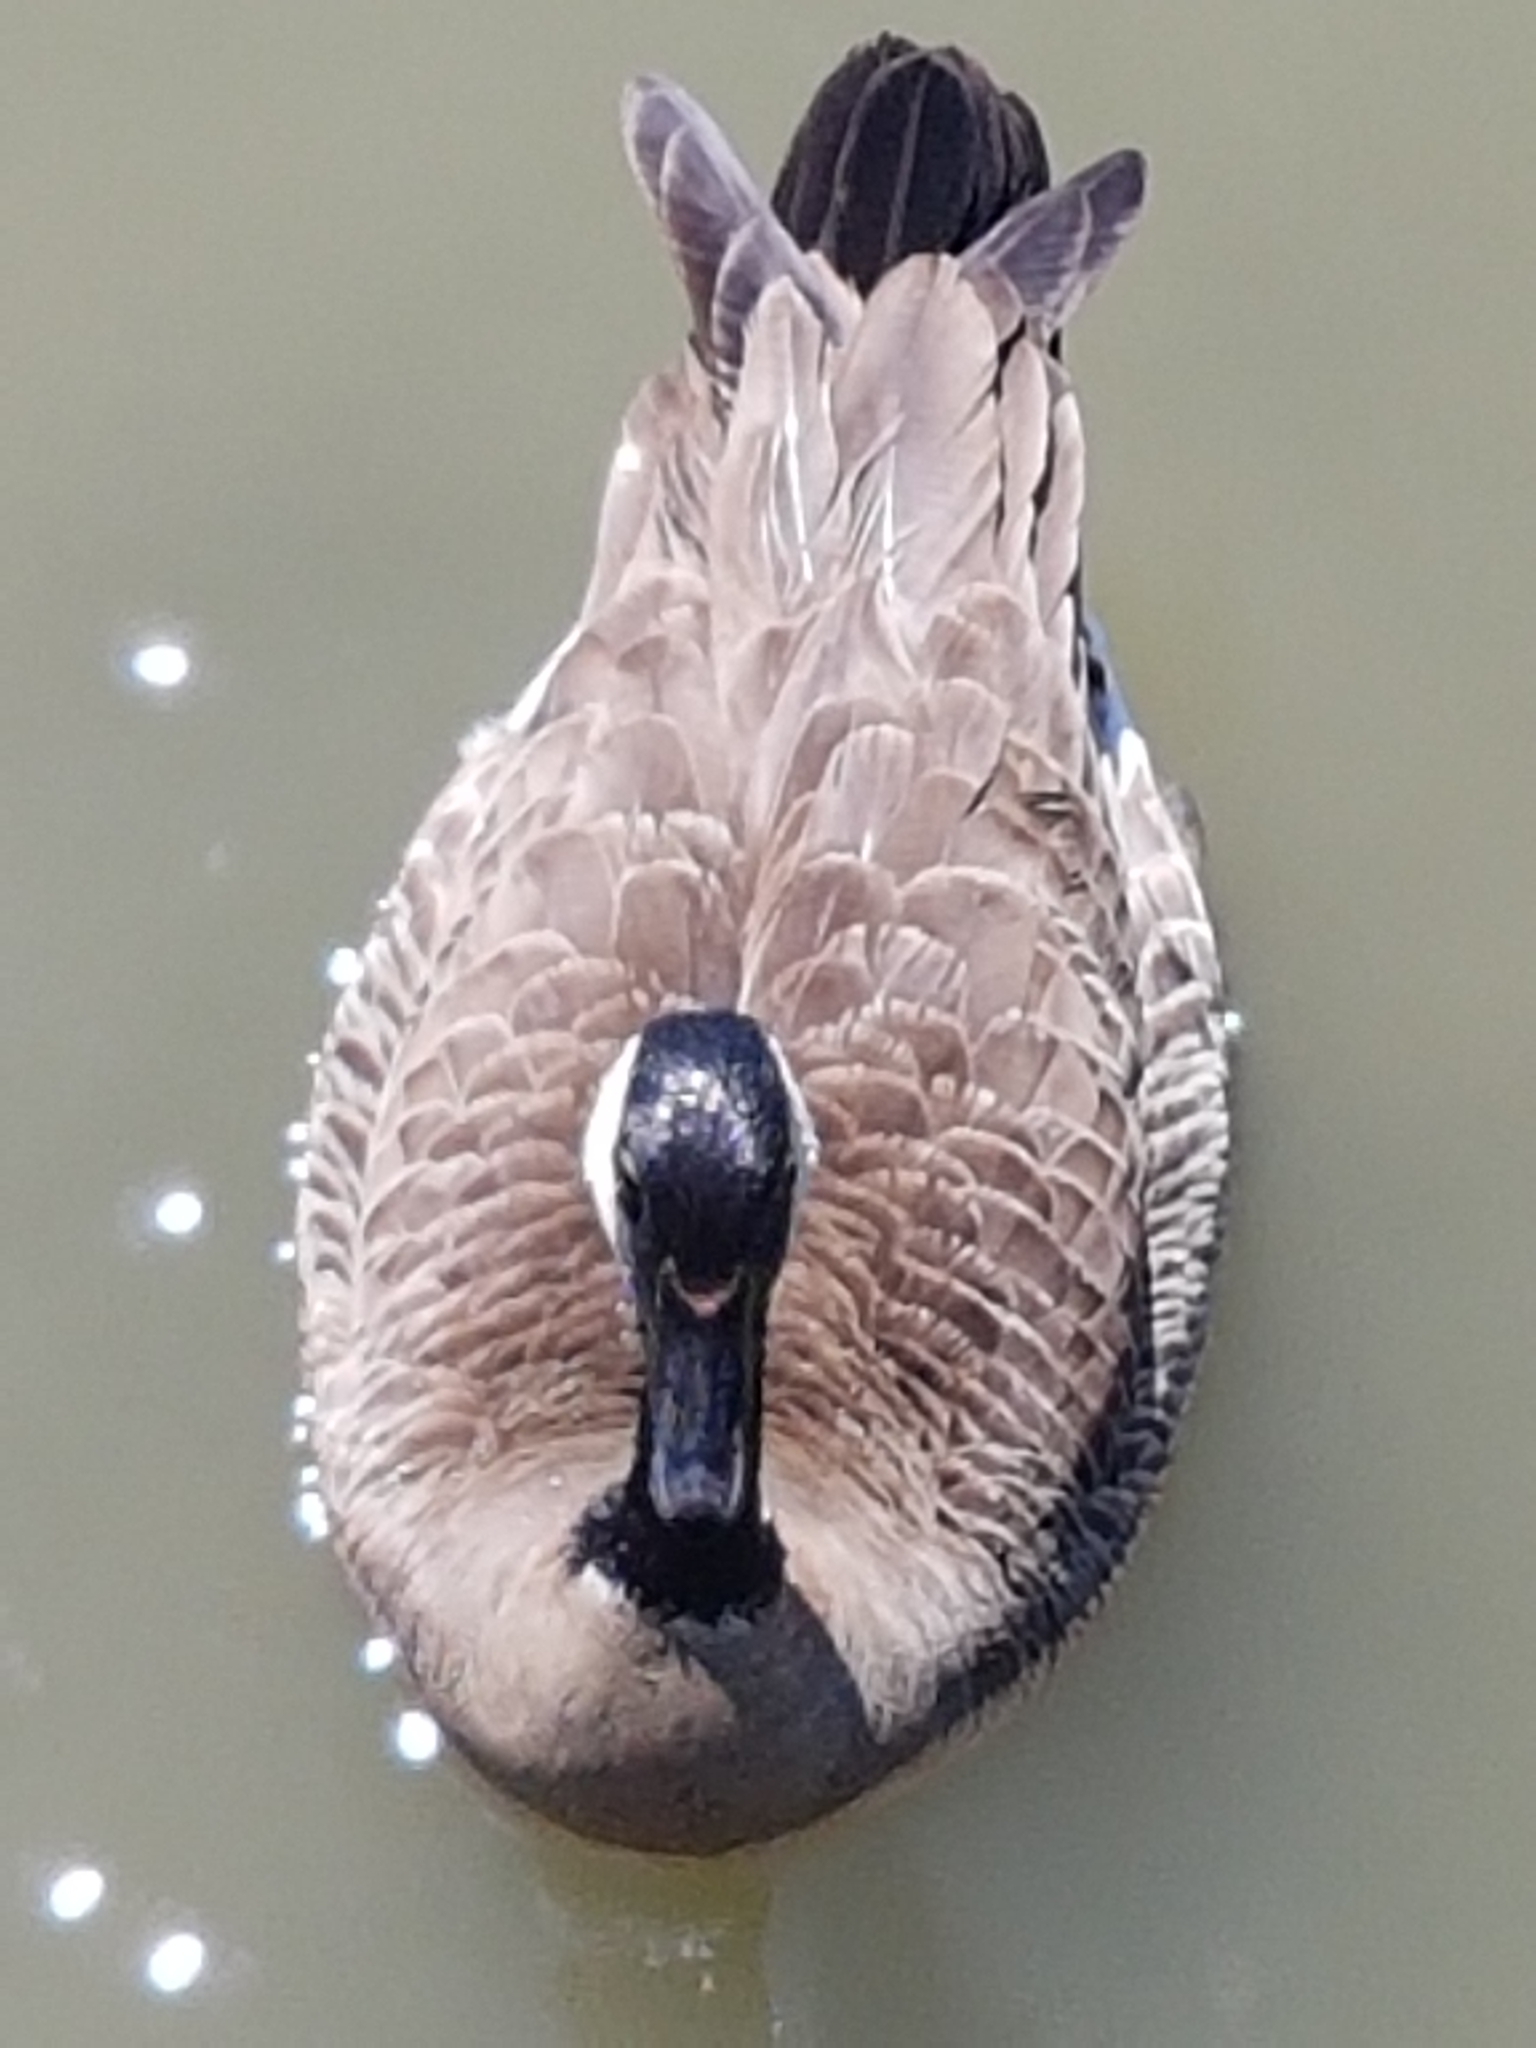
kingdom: Animalia
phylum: Chordata
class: Aves
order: Anseriformes
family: Anatidae
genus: Branta
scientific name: Branta canadensis
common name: Canada goose
